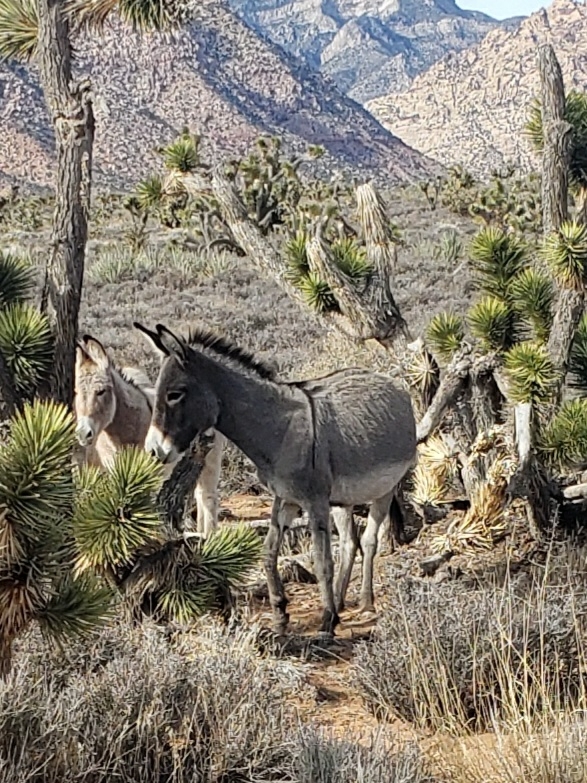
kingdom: Animalia
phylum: Chordata
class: Mammalia
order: Perissodactyla
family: Equidae
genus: Equus
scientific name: Equus asinus
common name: Ass
